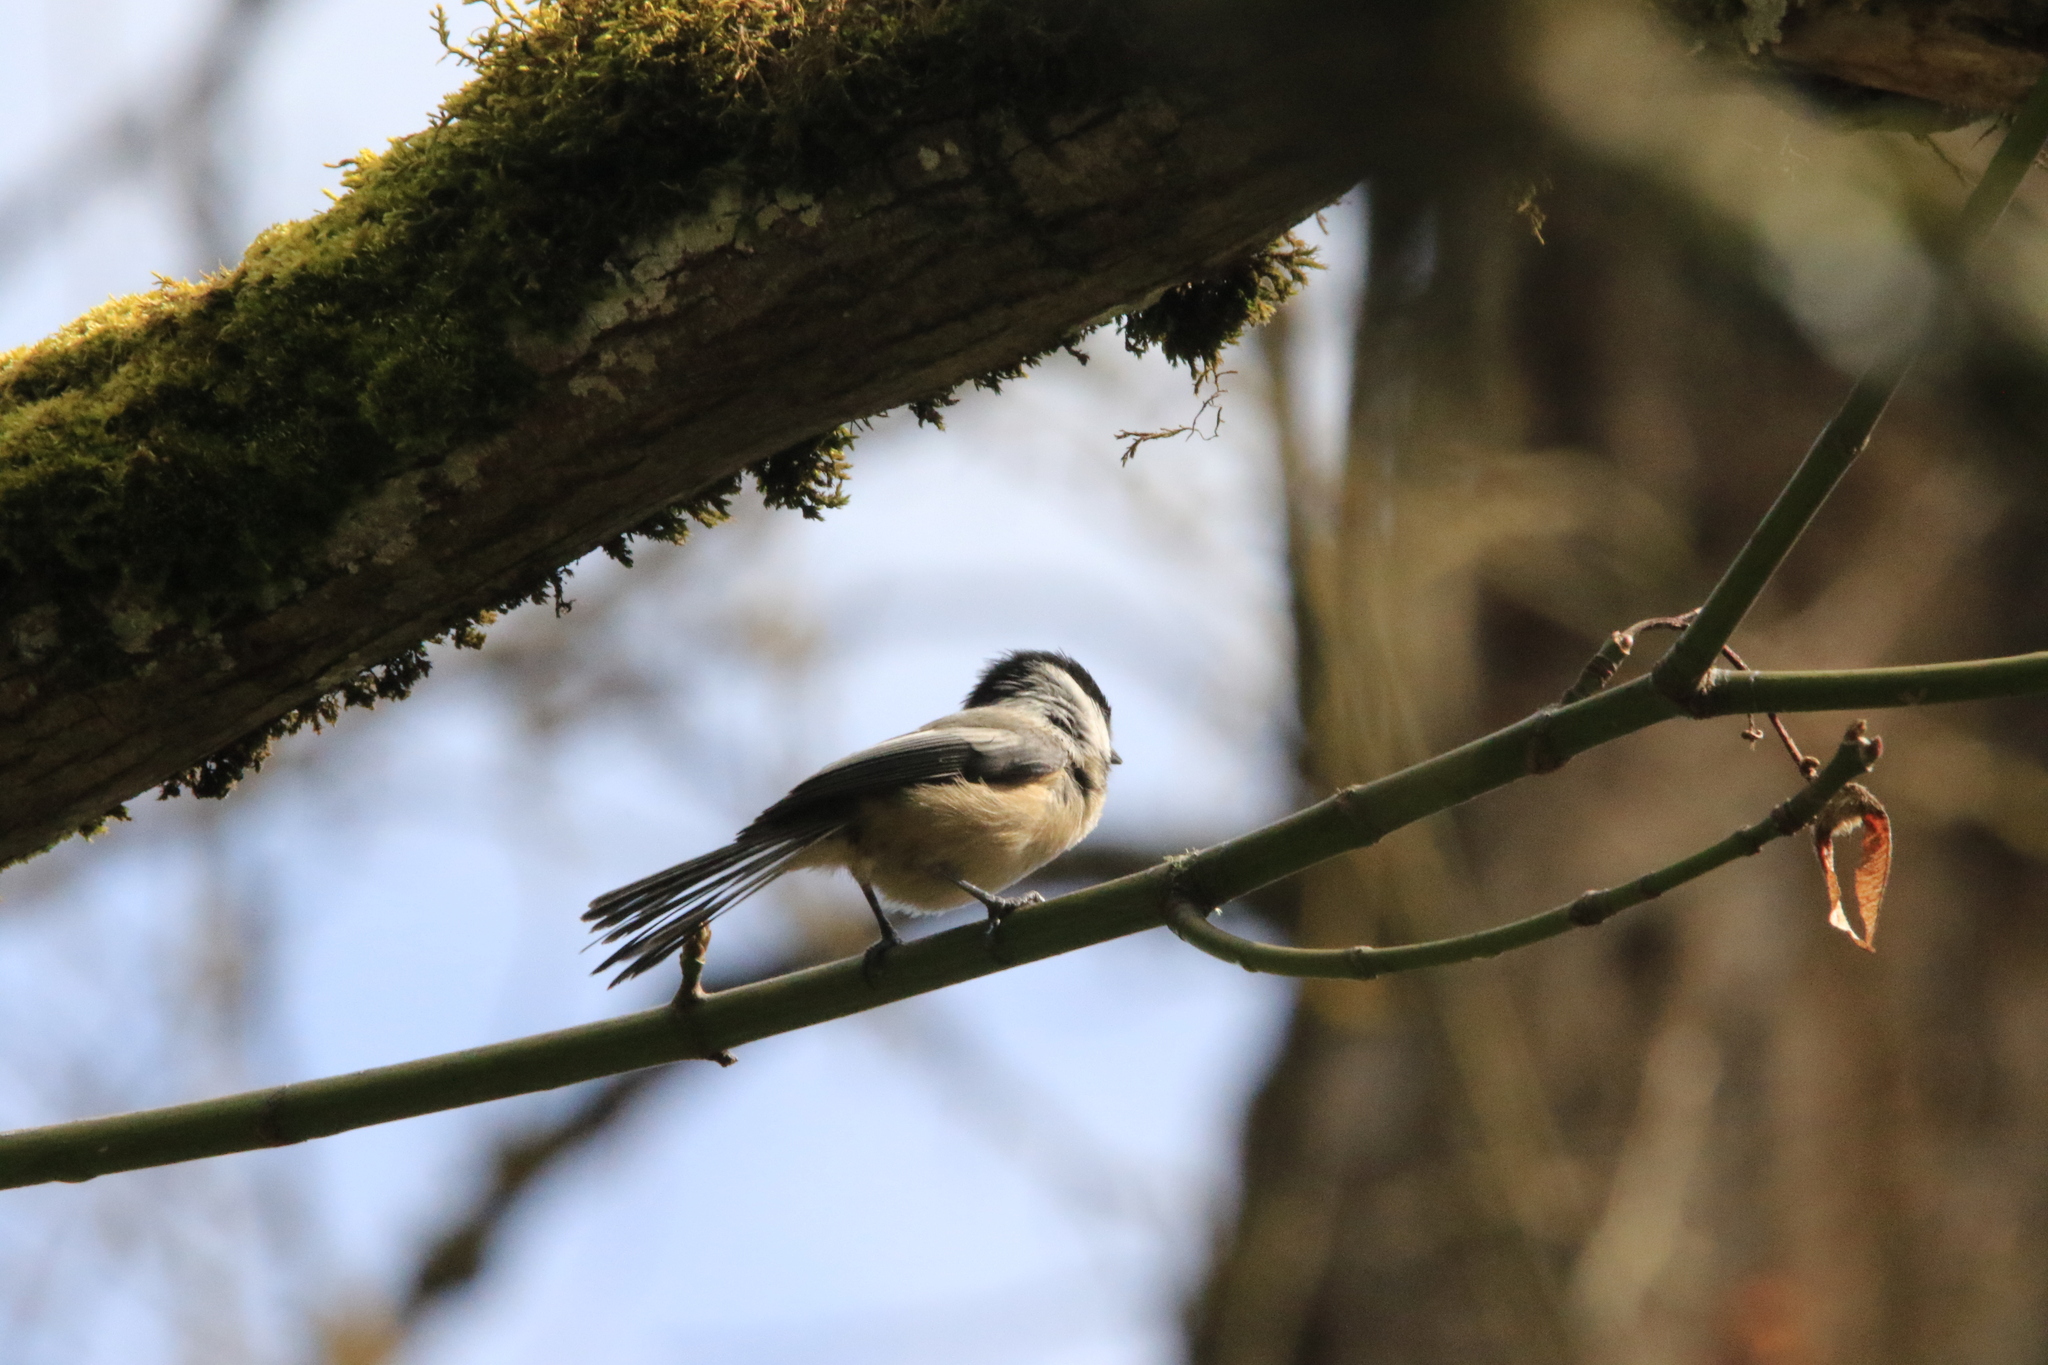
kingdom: Animalia
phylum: Chordata
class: Aves
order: Passeriformes
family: Paridae
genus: Poecile
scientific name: Poecile atricapillus
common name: Black-capped chickadee
